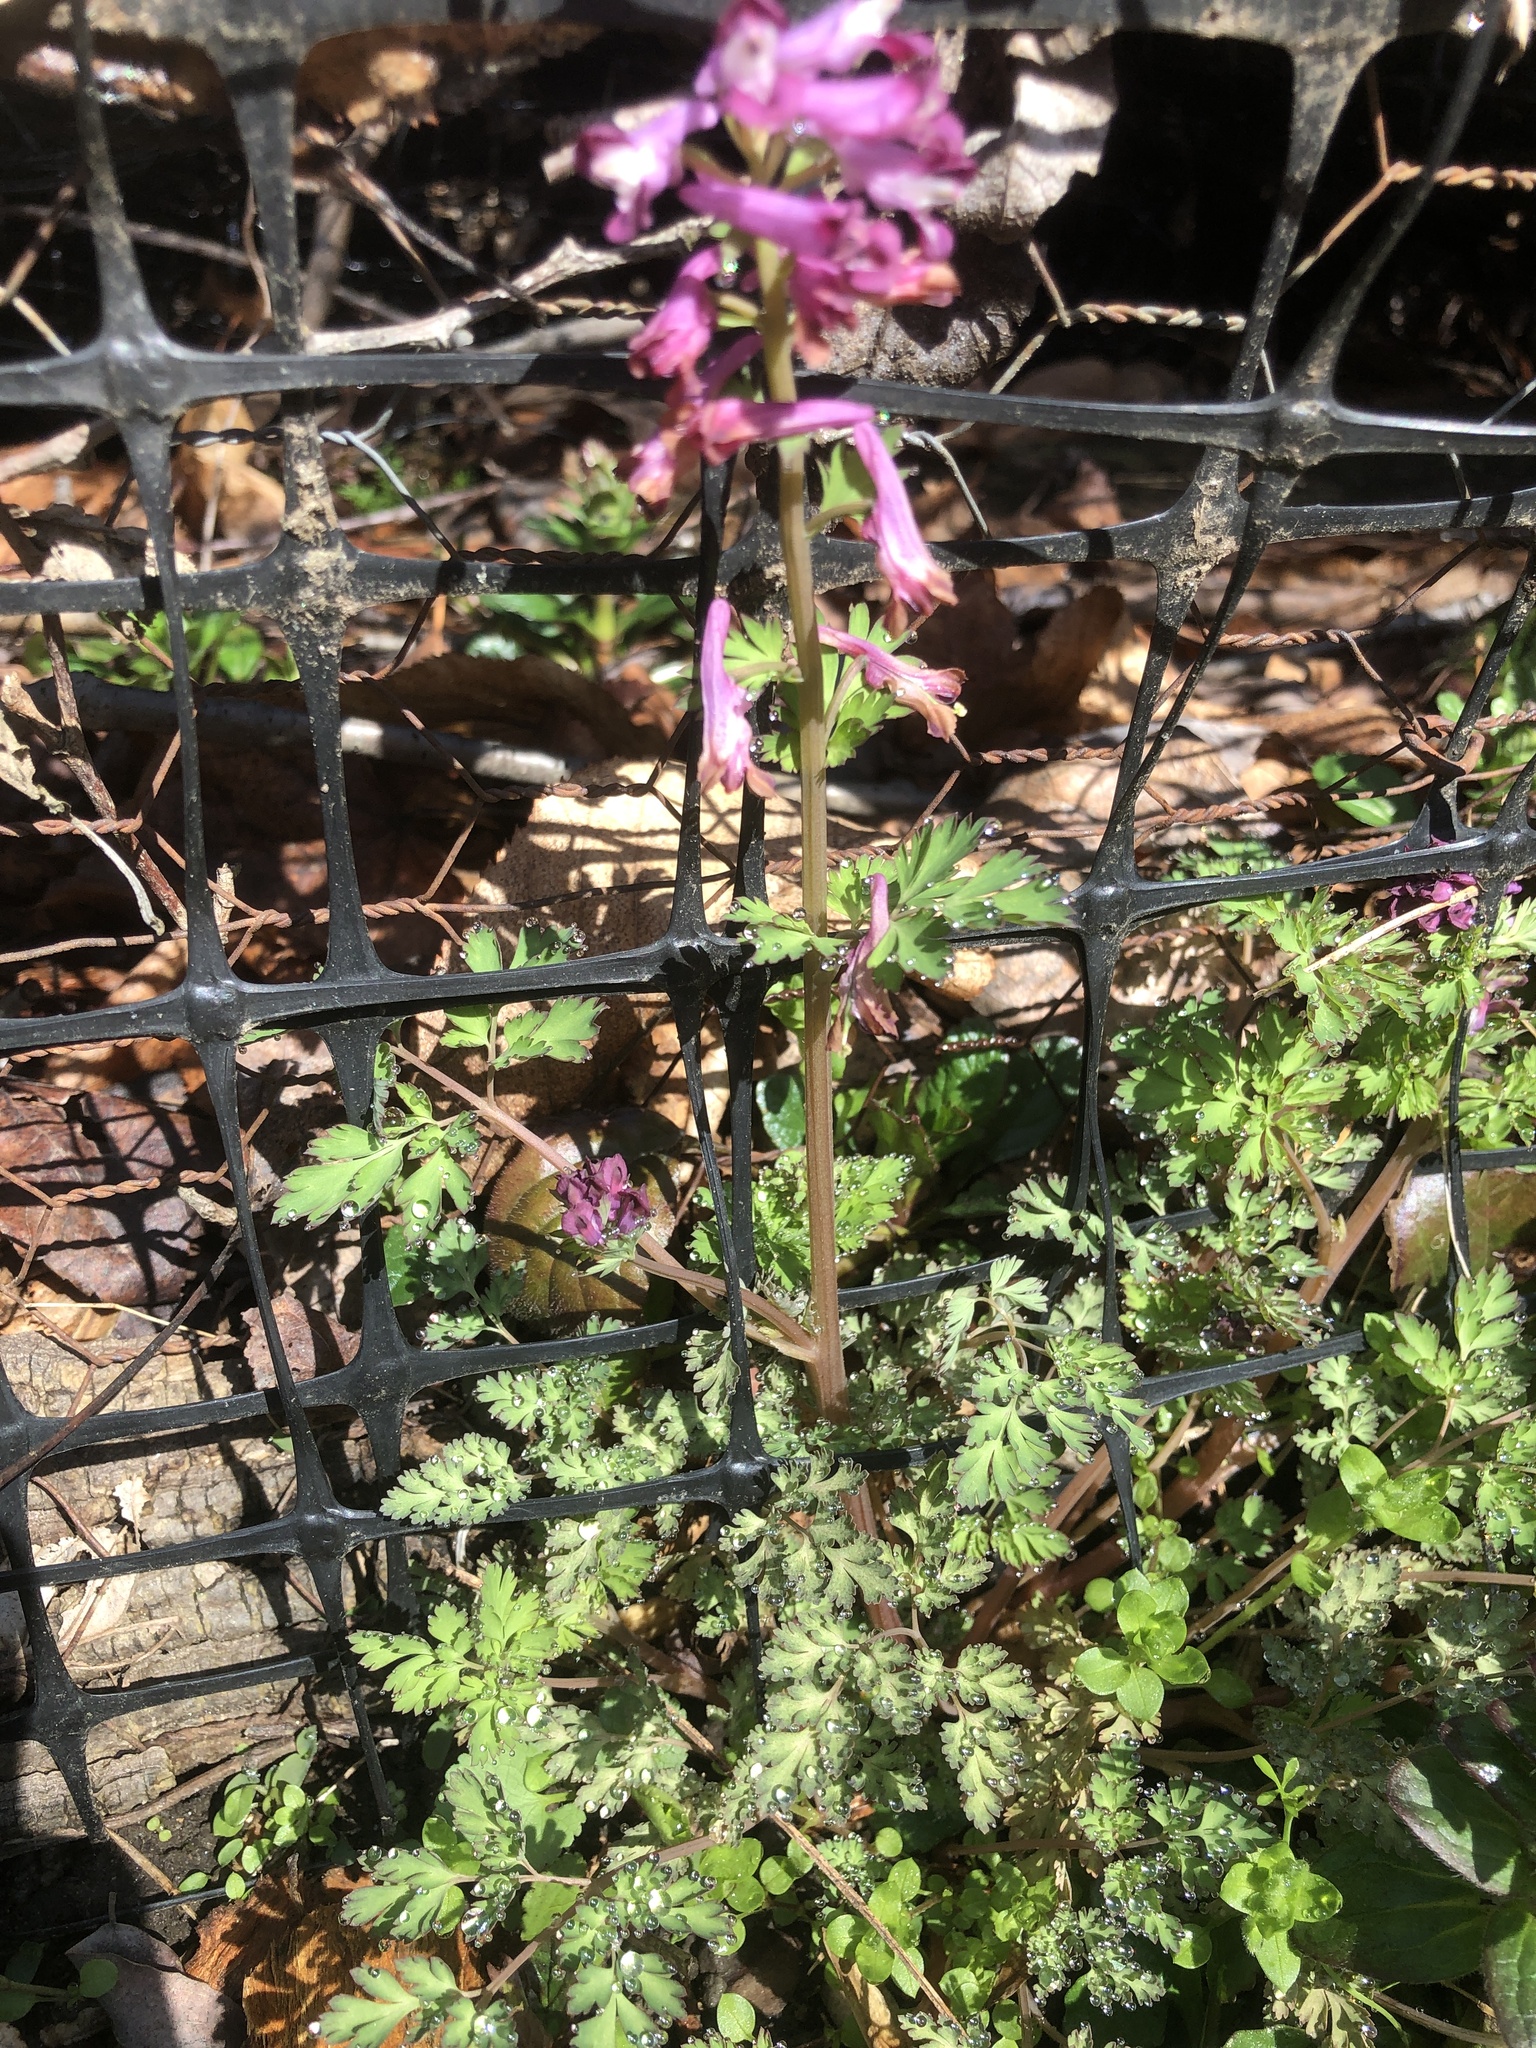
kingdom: Plantae
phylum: Tracheophyta
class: Magnoliopsida
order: Ranunculales
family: Papaveraceae
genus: Corydalis
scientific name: Corydalis incisa
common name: Incised fumewort
